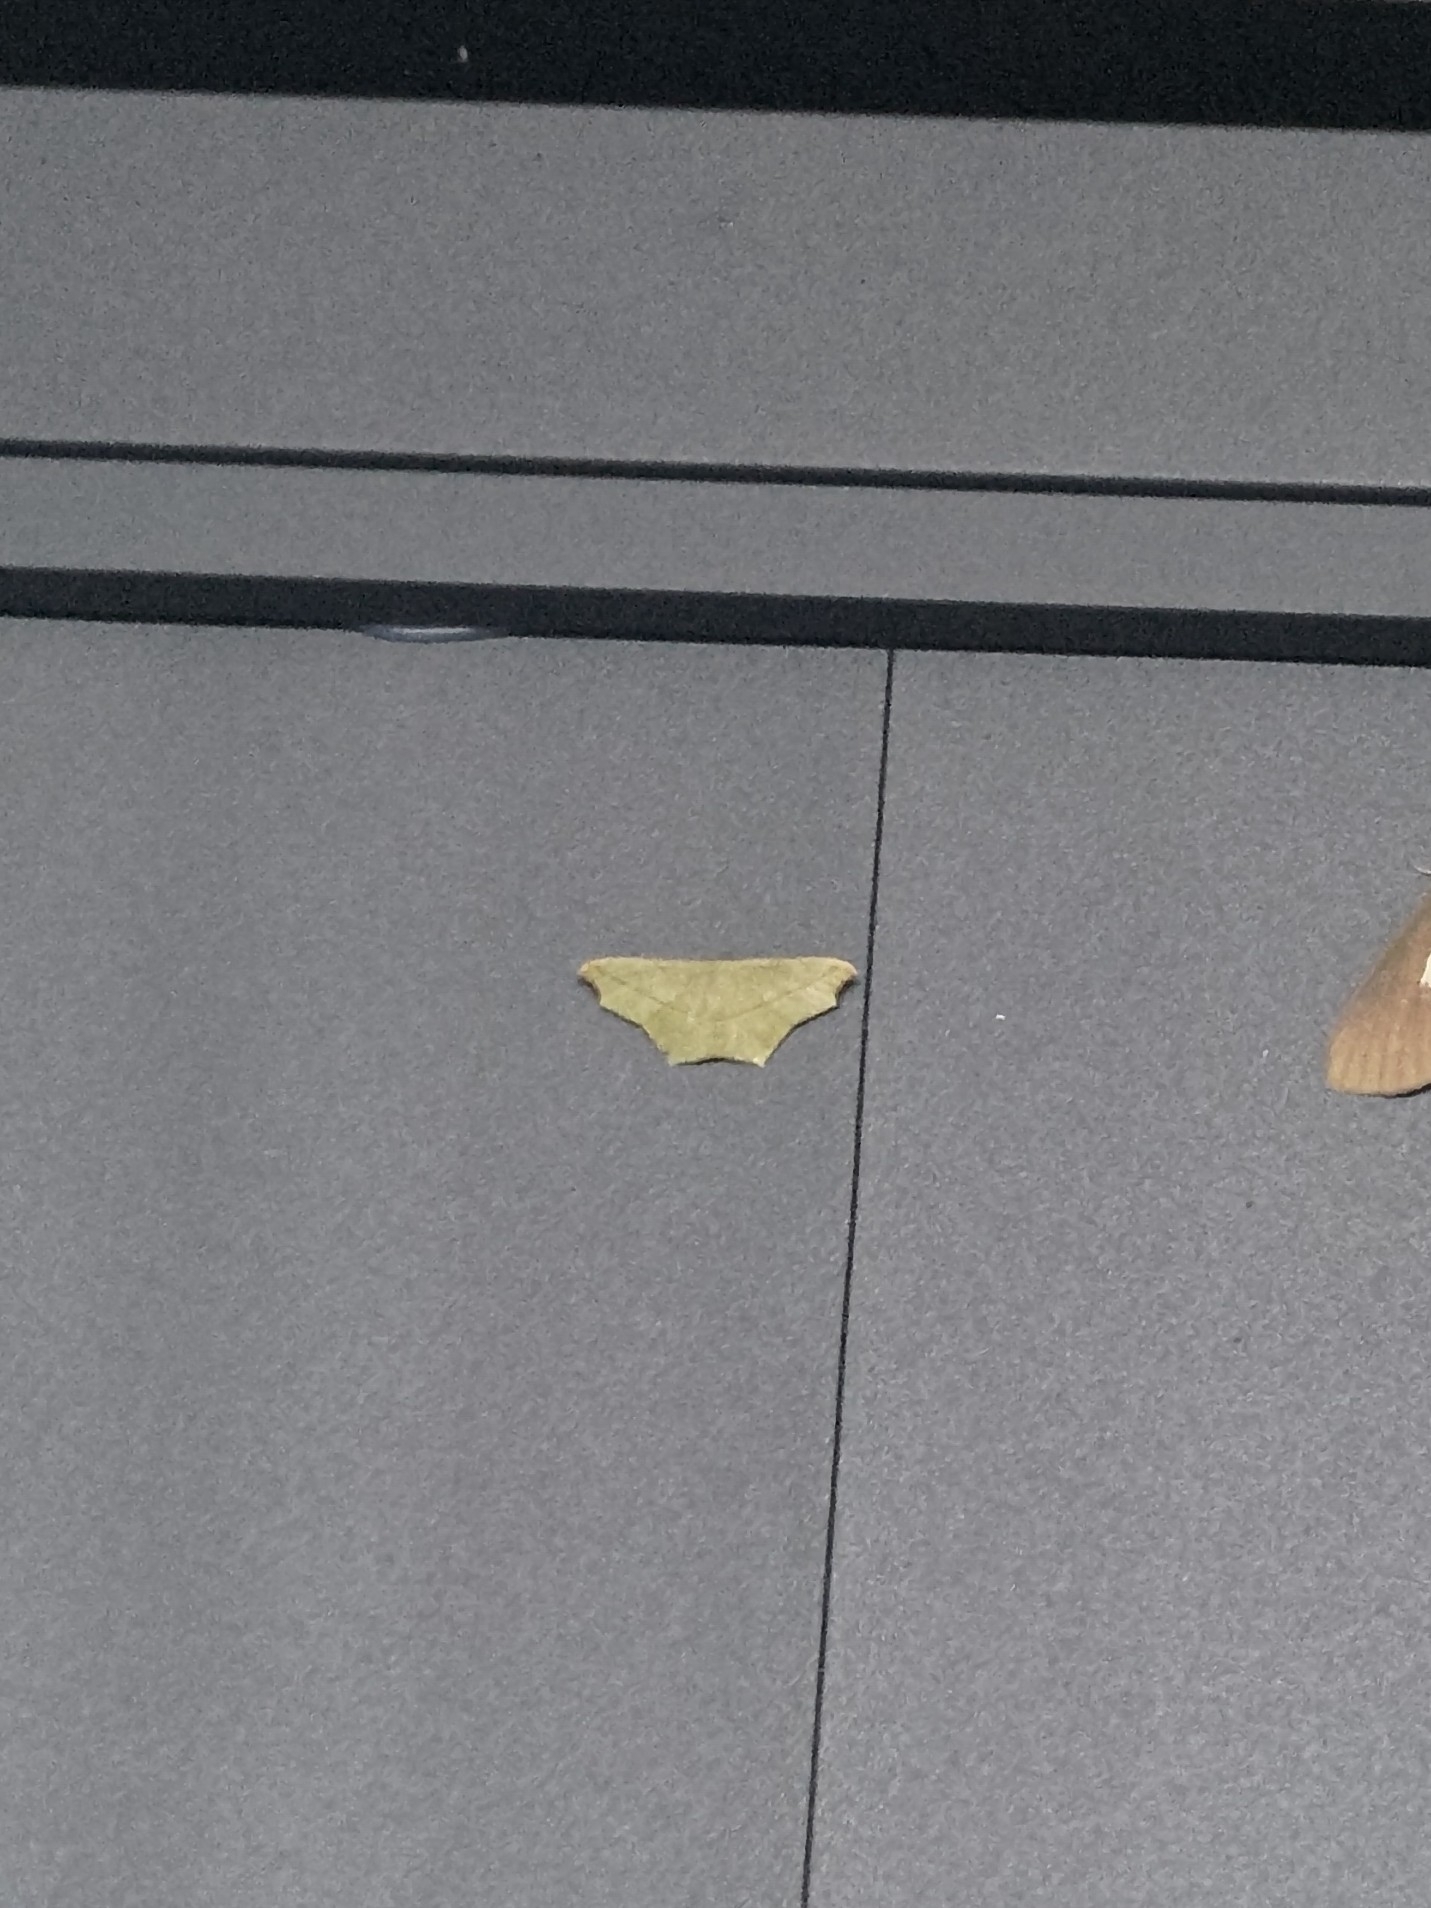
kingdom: Animalia
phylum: Arthropoda
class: Insecta
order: Lepidoptera
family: Geometridae
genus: Traminda
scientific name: Traminda aventiaria
